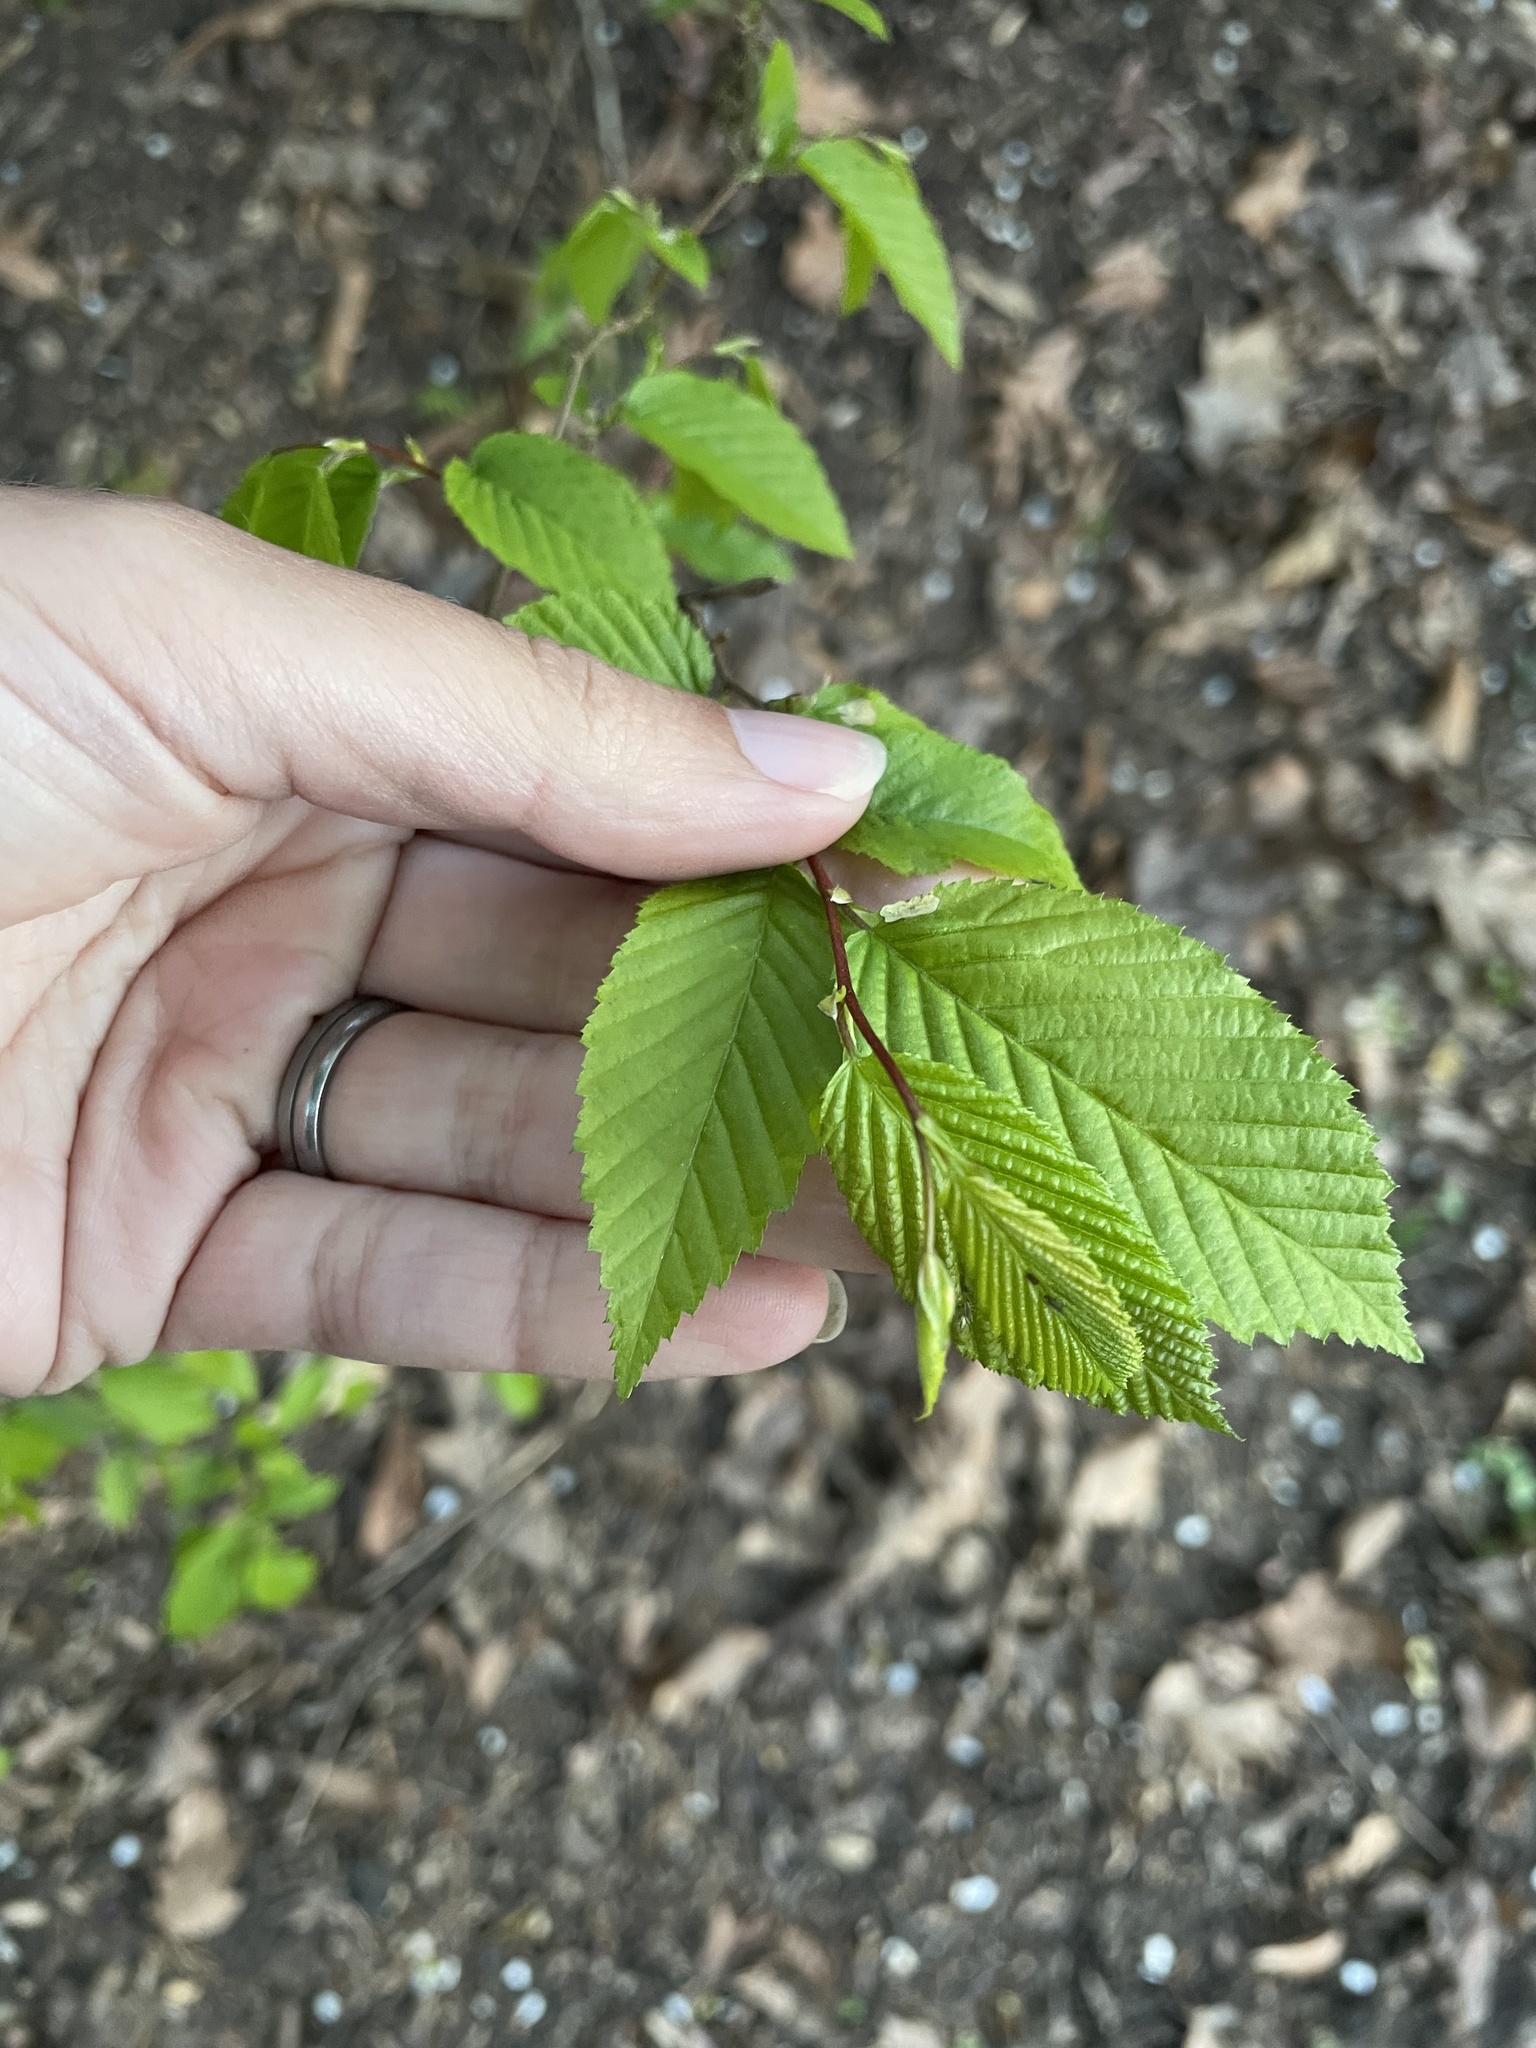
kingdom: Plantae
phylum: Tracheophyta
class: Magnoliopsida
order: Fagales
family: Betulaceae
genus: Carpinus
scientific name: Carpinus caroliniana
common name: American hornbeam
